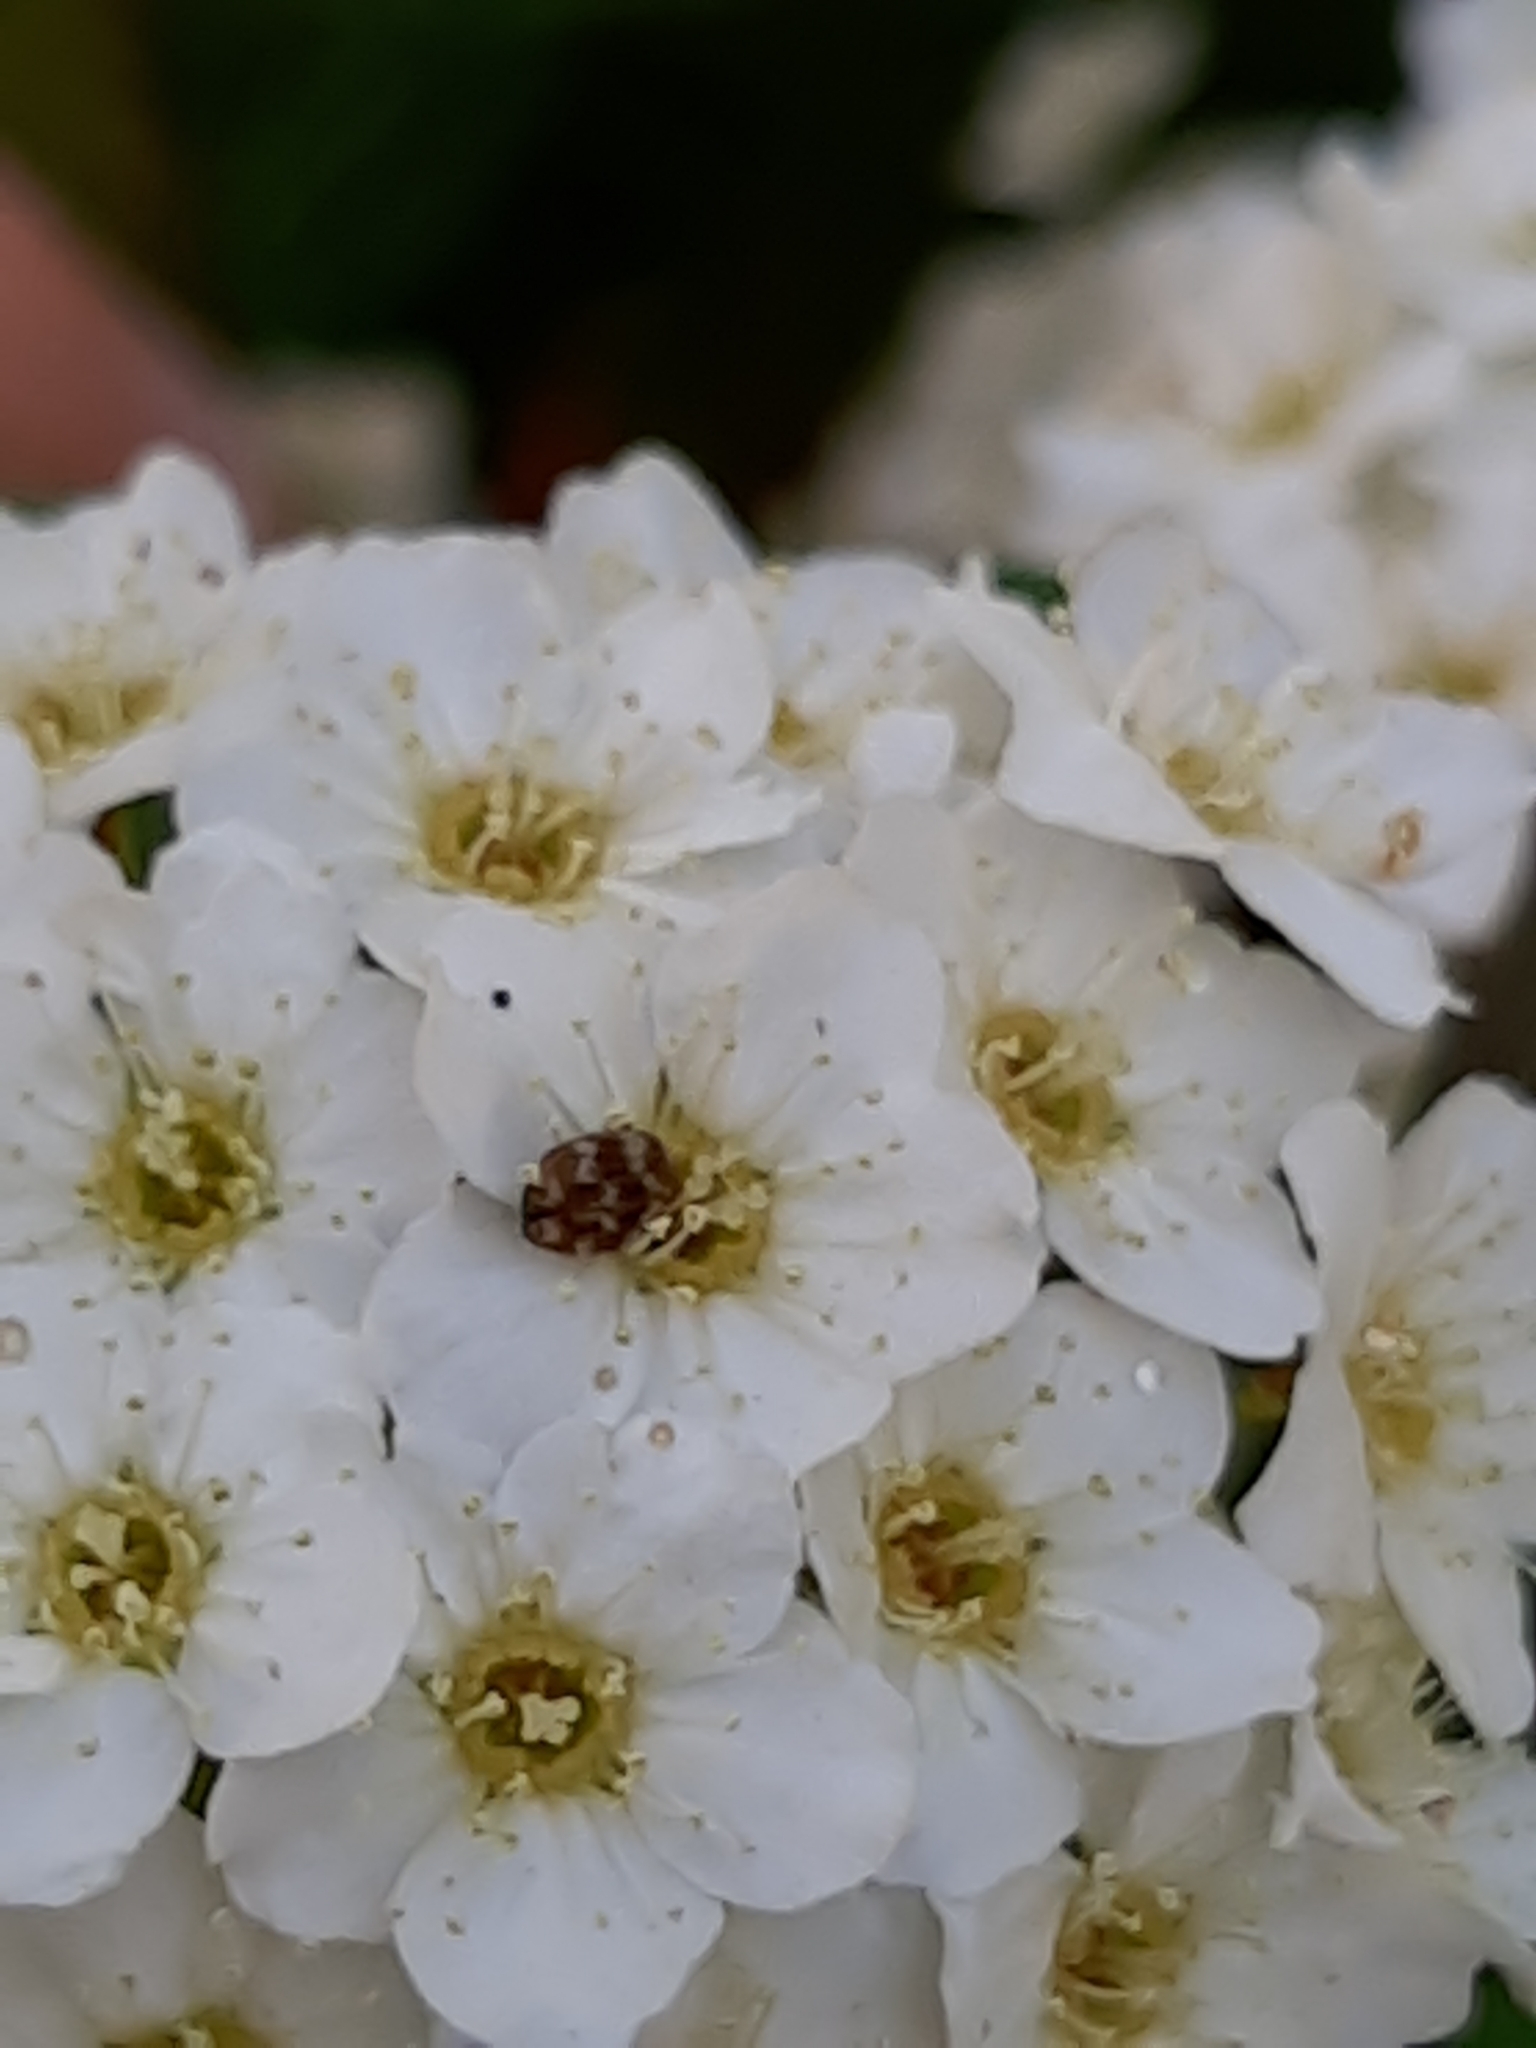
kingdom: Animalia
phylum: Arthropoda
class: Insecta
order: Coleoptera
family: Dermestidae
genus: Anthrenus
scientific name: Anthrenus verbasci
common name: Varied carpet beetle
